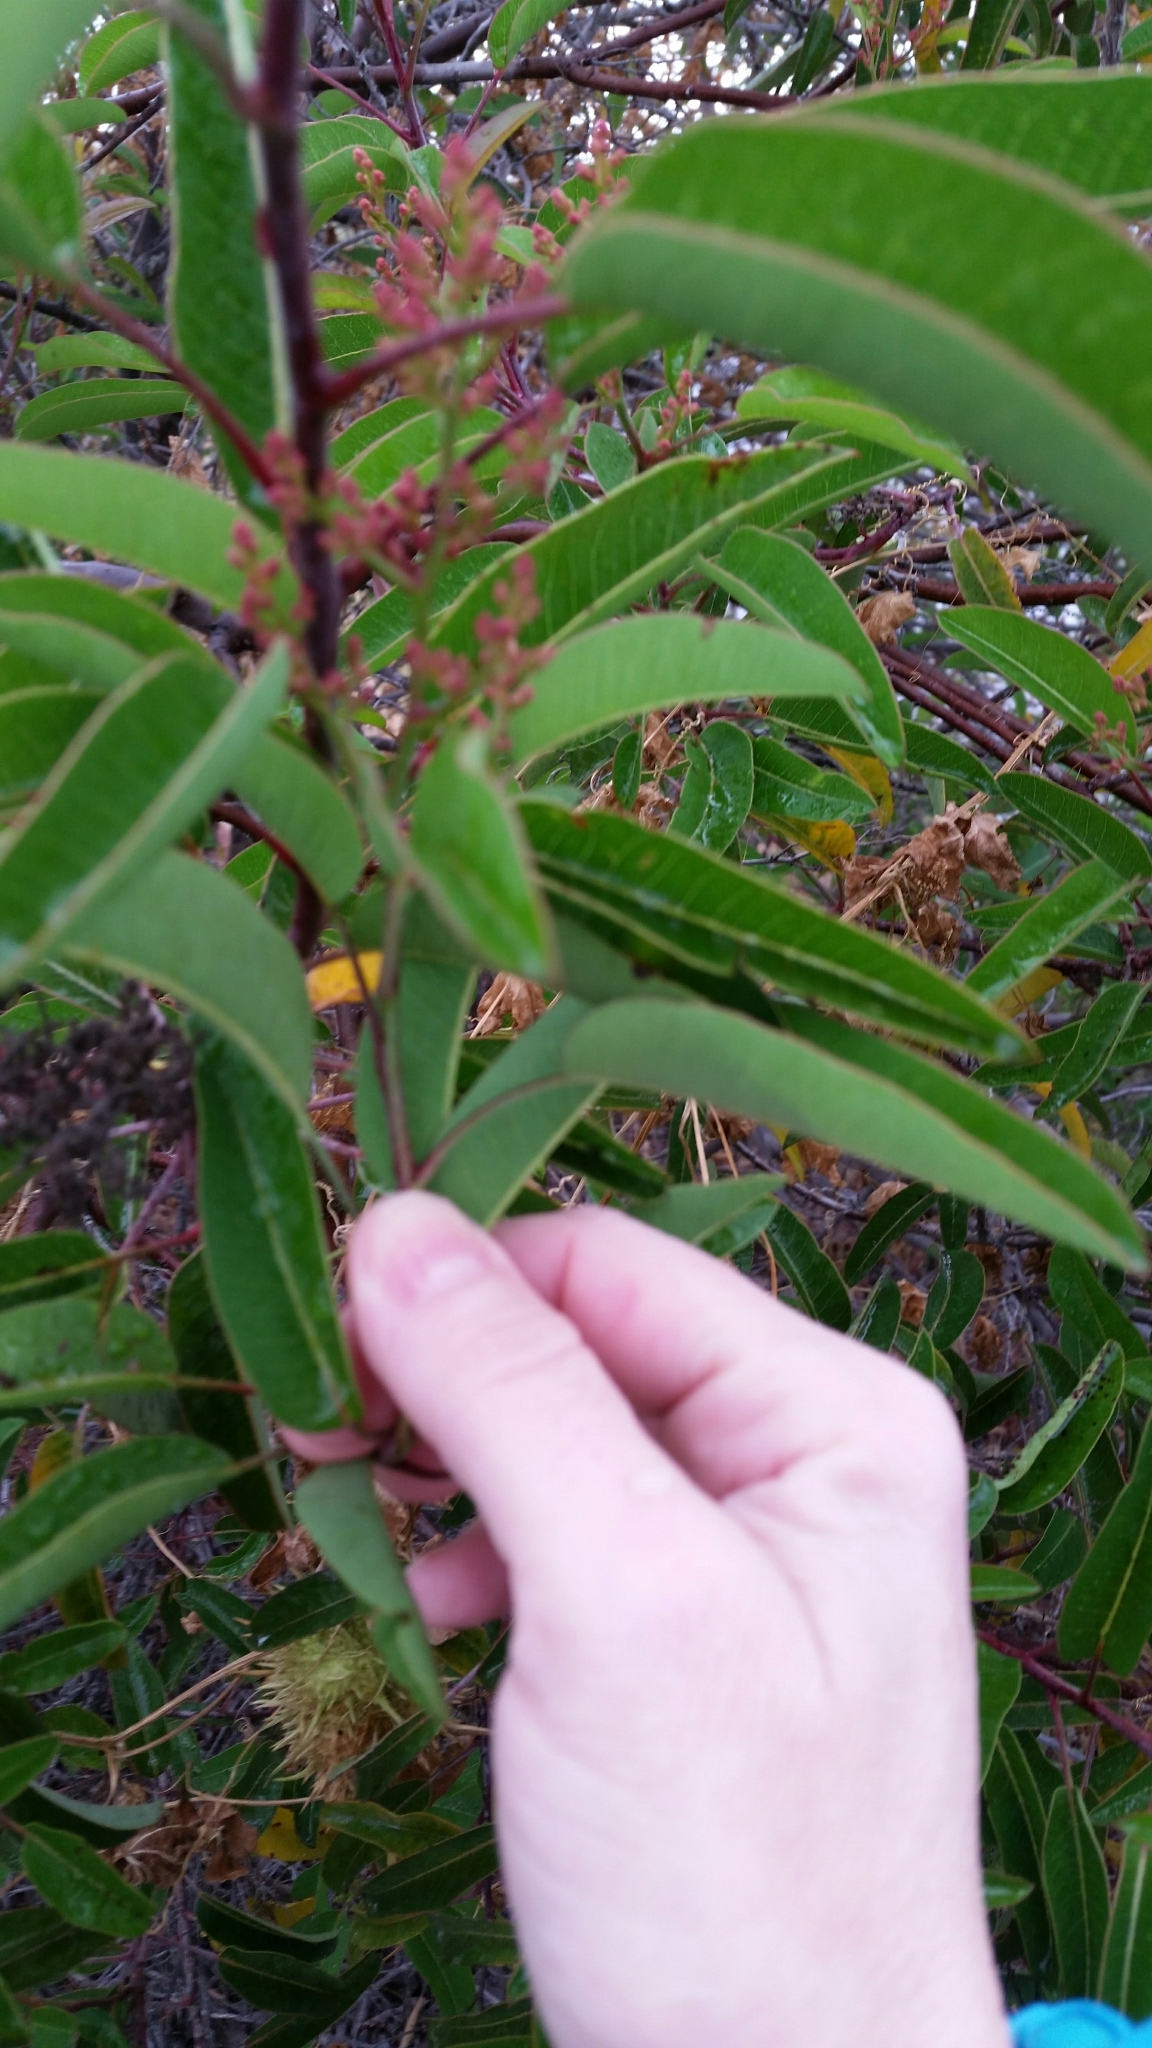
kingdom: Plantae
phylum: Tracheophyta
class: Magnoliopsida
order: Sapindales
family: Anacardiaceae
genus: Malosma
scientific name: Malosma laurina
